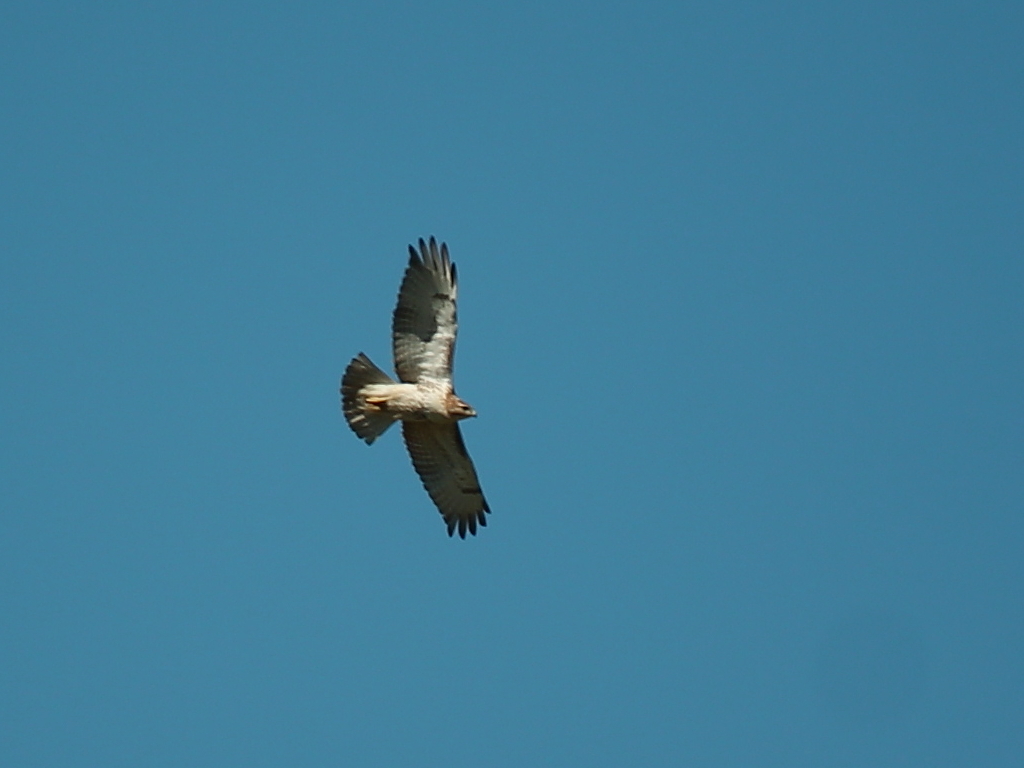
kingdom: Animalia
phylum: Chordata
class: Aves
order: Accipitriformes
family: Accipitridae
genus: Buteo
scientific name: Buteo jamaicensis
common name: Red-tailed hawk
